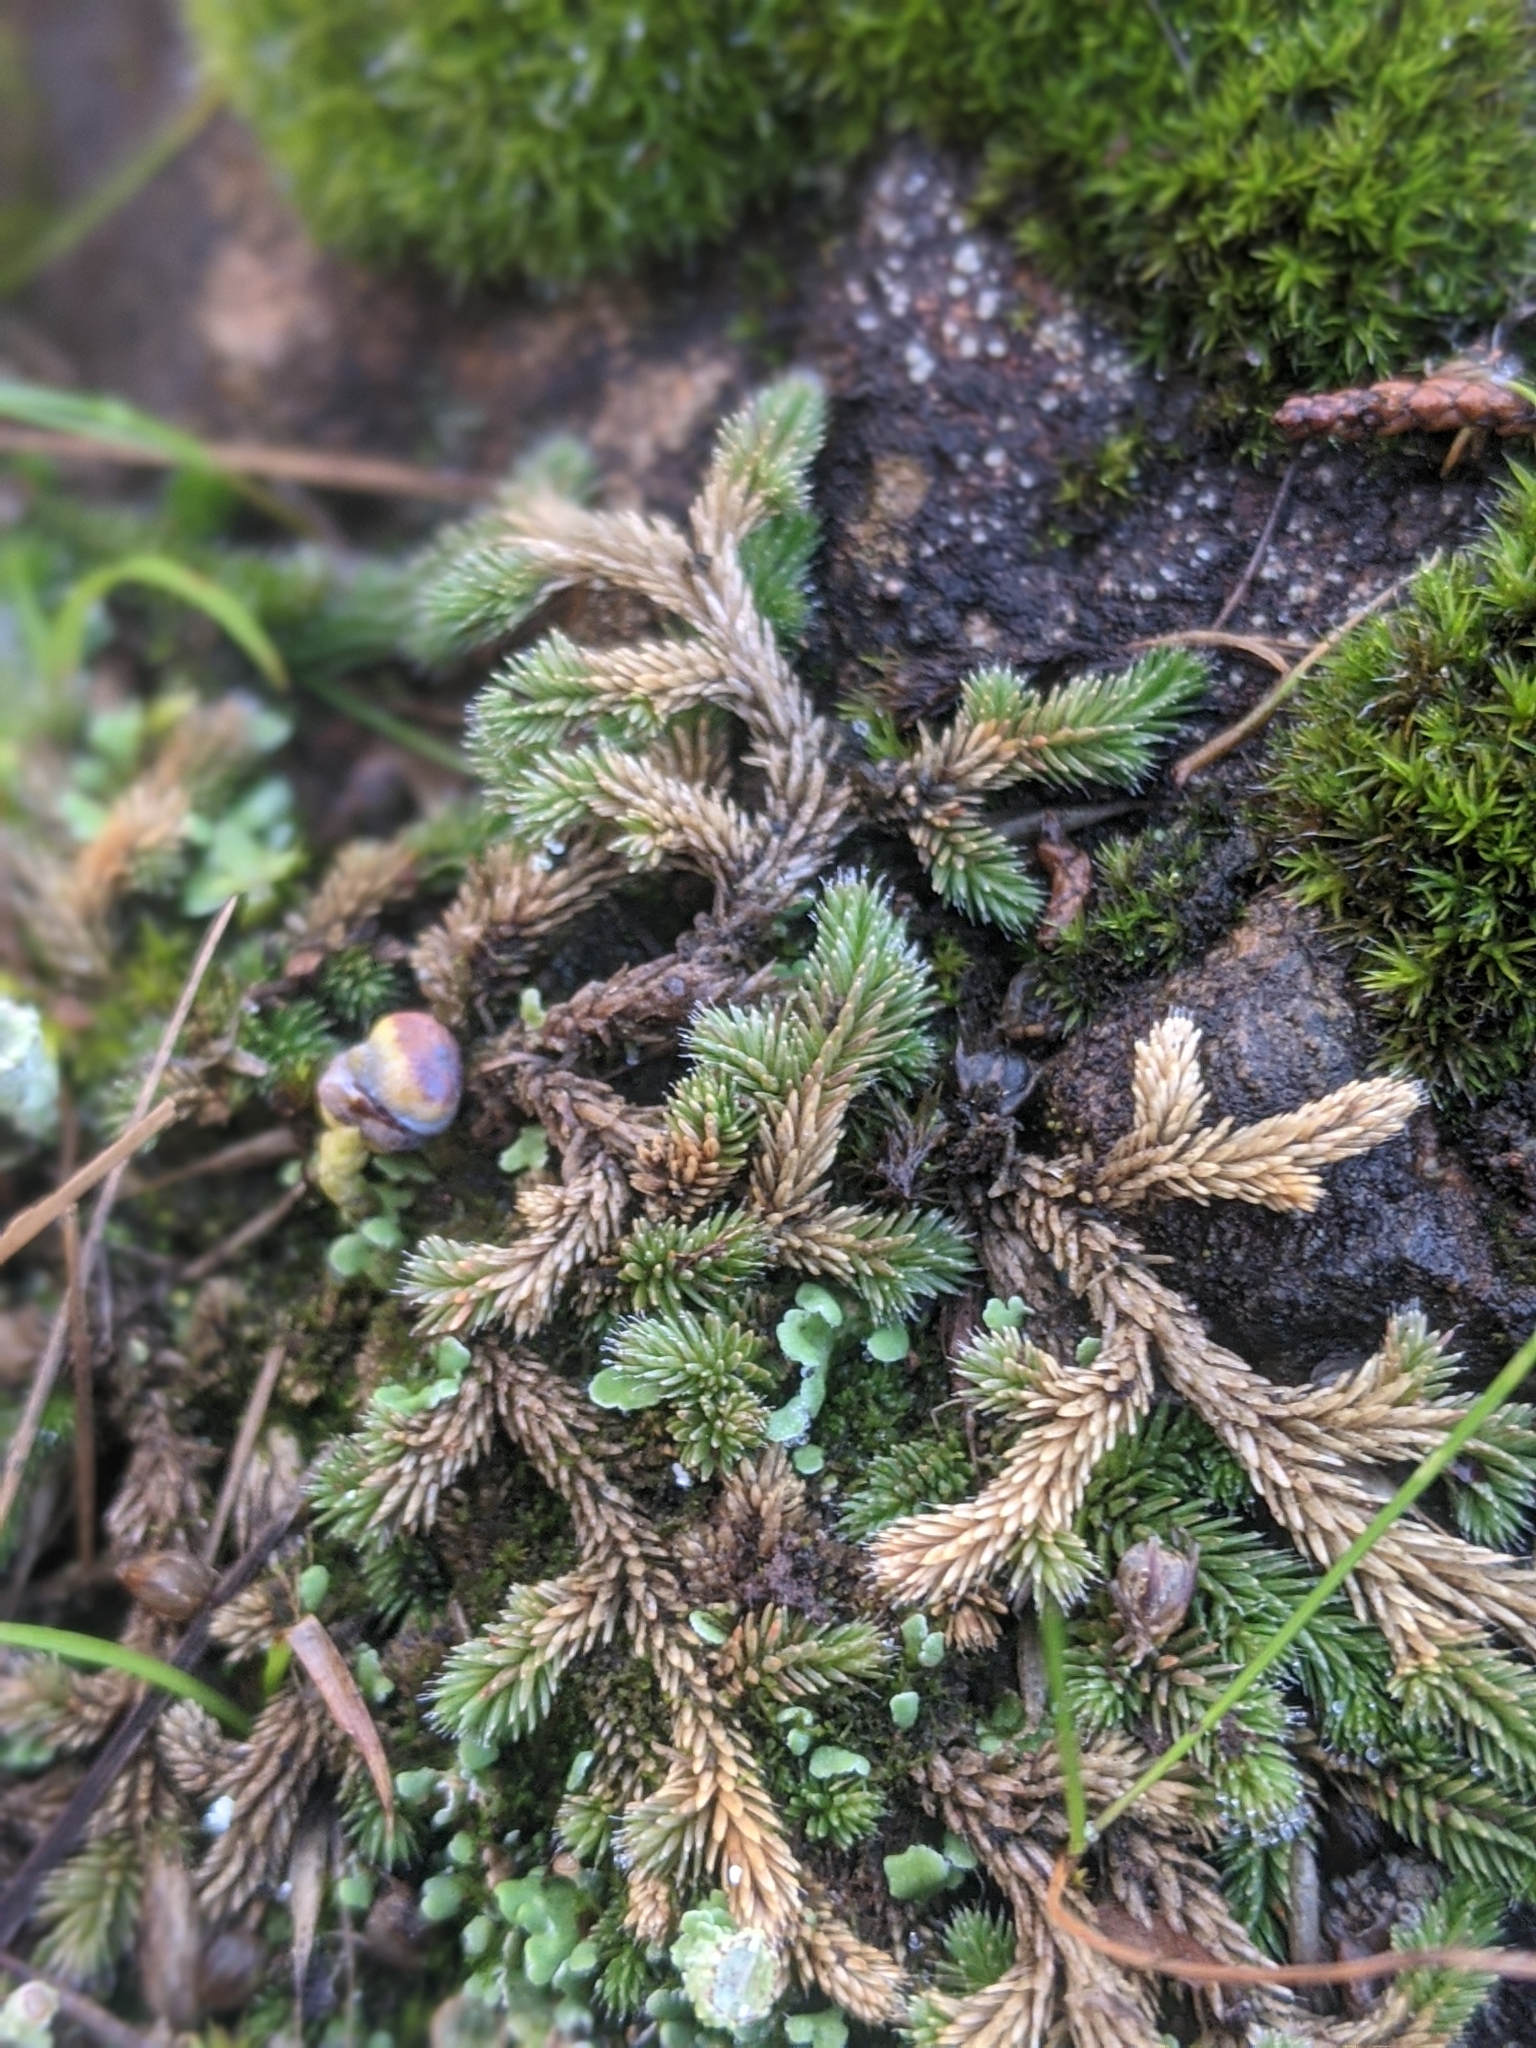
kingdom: Plantae
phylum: Tracheophyta
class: Lycopodiopsida
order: Selaginellales
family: Selaginellaceae
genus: Selaginella
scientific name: Selaginella wallacei
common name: Wallace's selaginella
